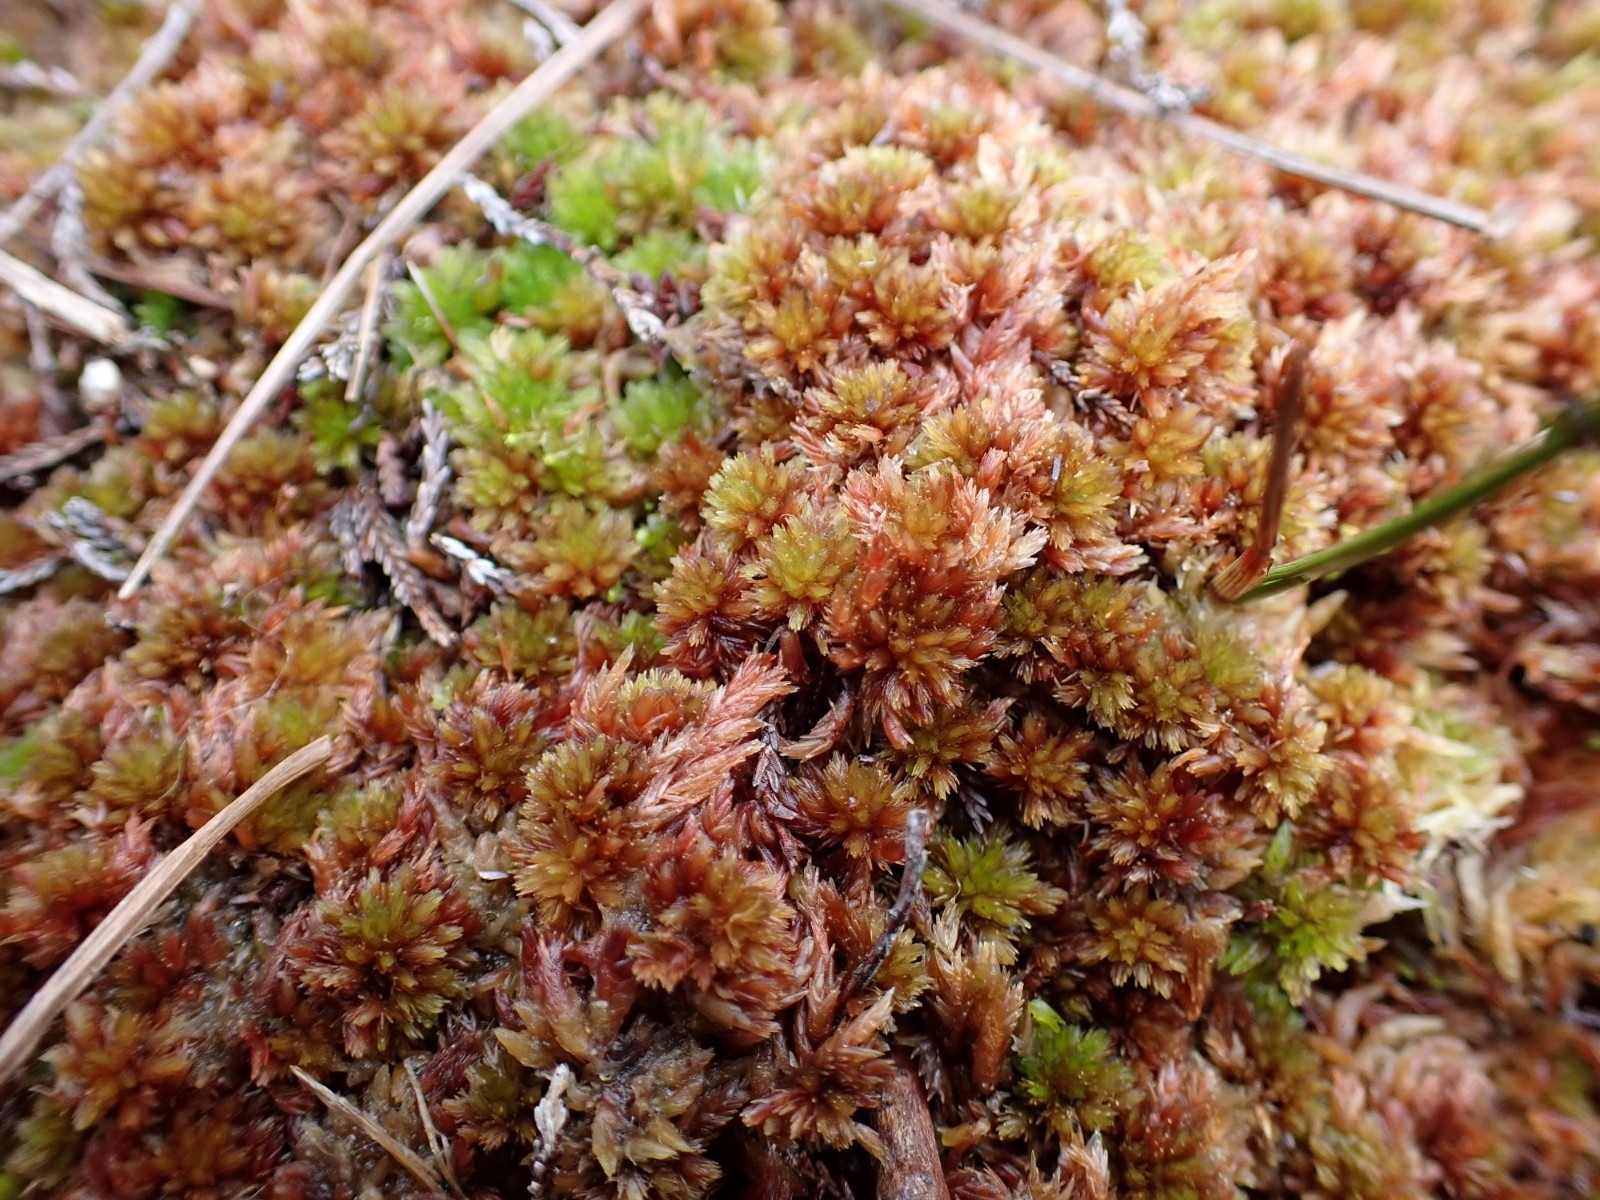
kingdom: Plantae
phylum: Bryophyta
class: Sphagnopsida
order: Sphagnales
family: Sphagnaceae
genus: Sphagnum
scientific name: Sphagnum subnitens
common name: Lustrous bog-moss
